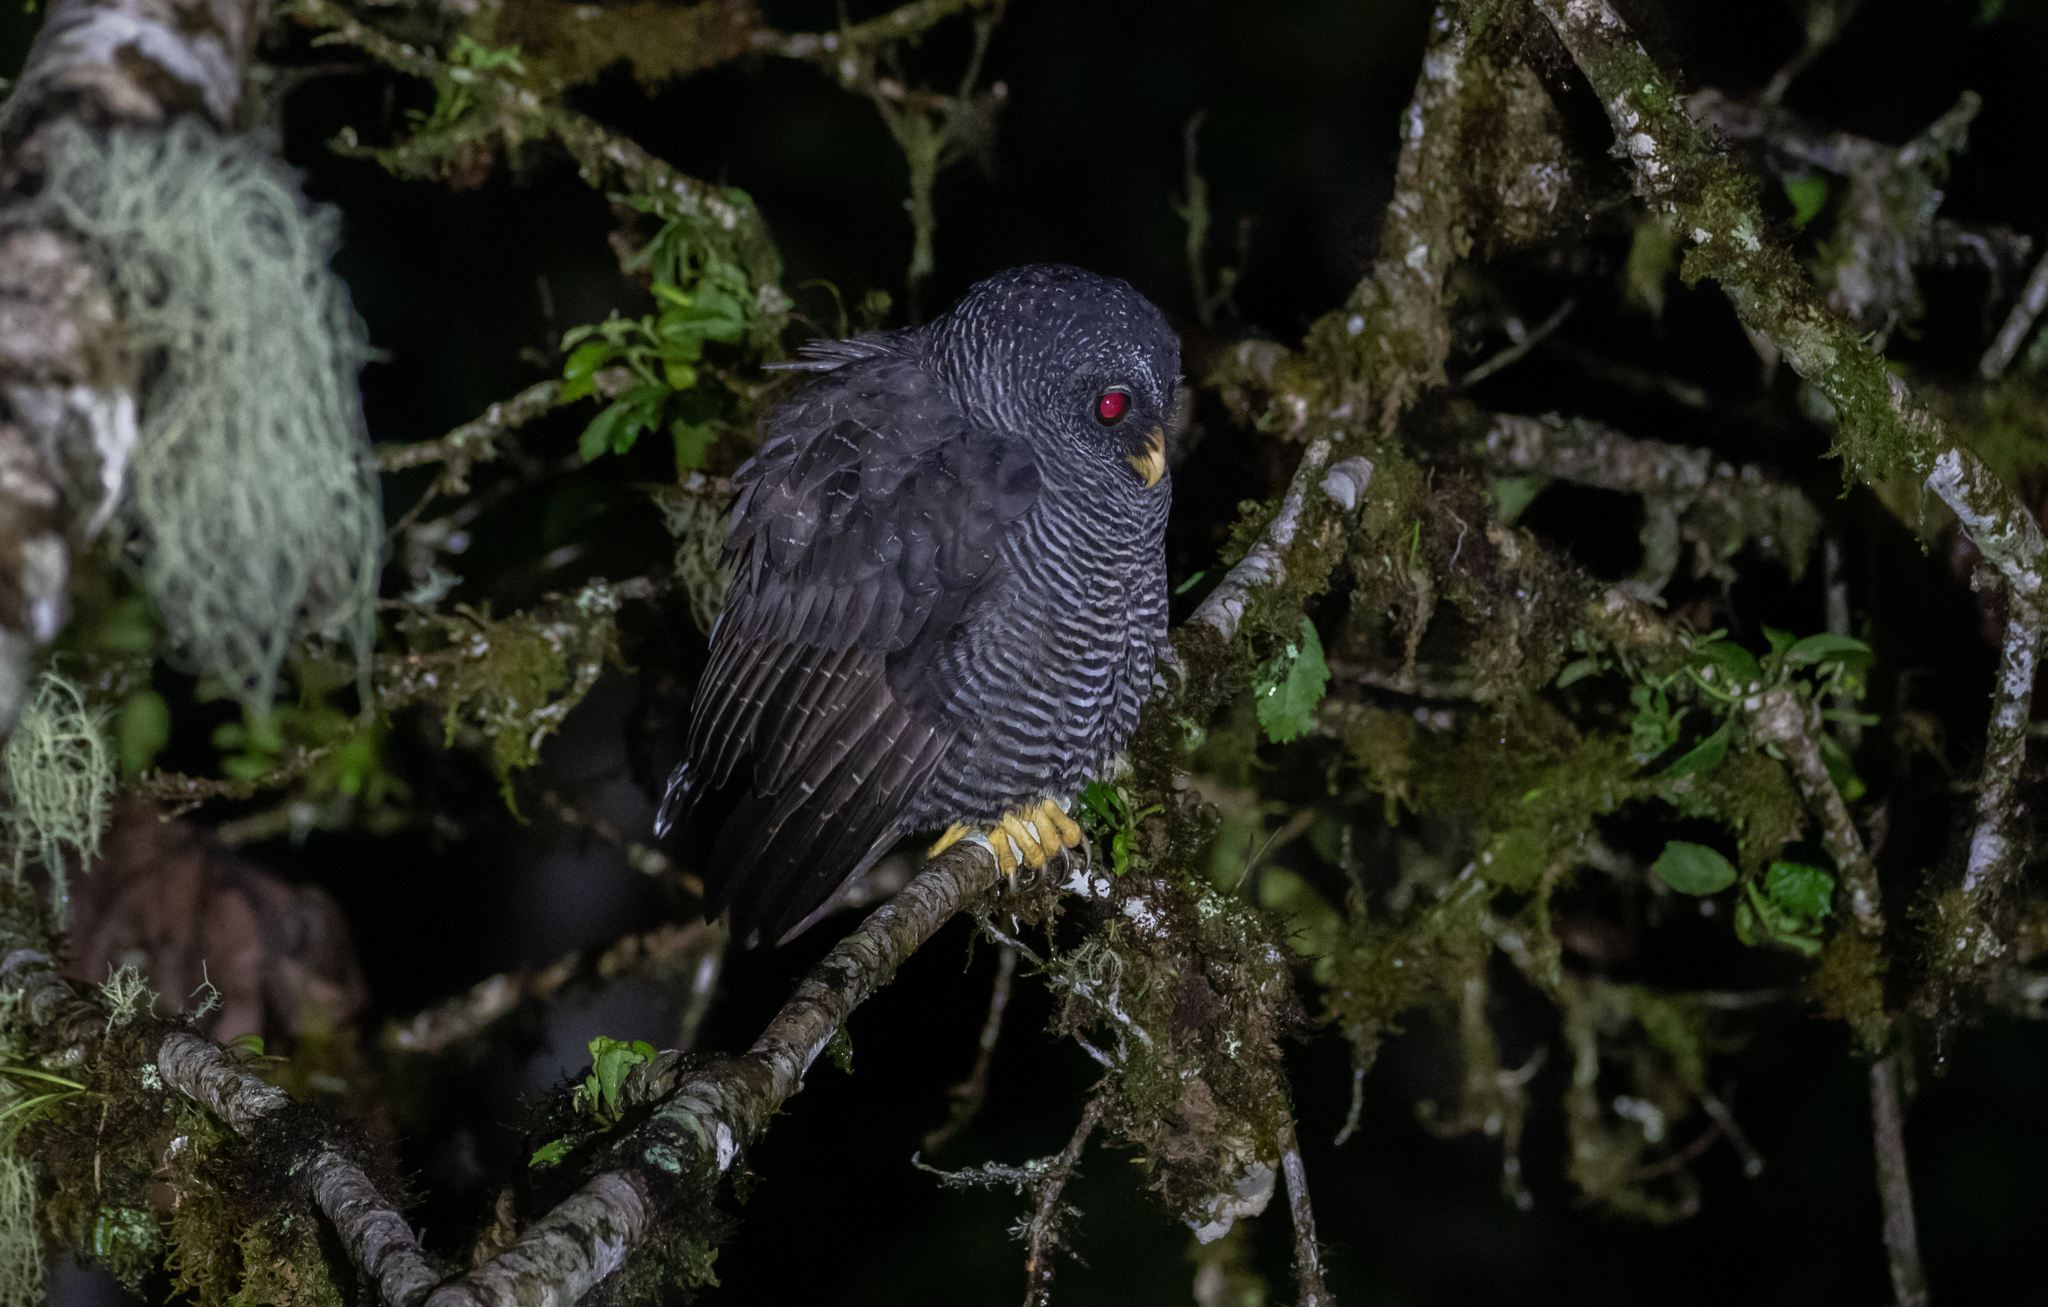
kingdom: Animalia
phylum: Chordata
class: Aves
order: Strigiformes
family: Strigidae
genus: Strix
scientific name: Strix huhula
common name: Black-banded owl
